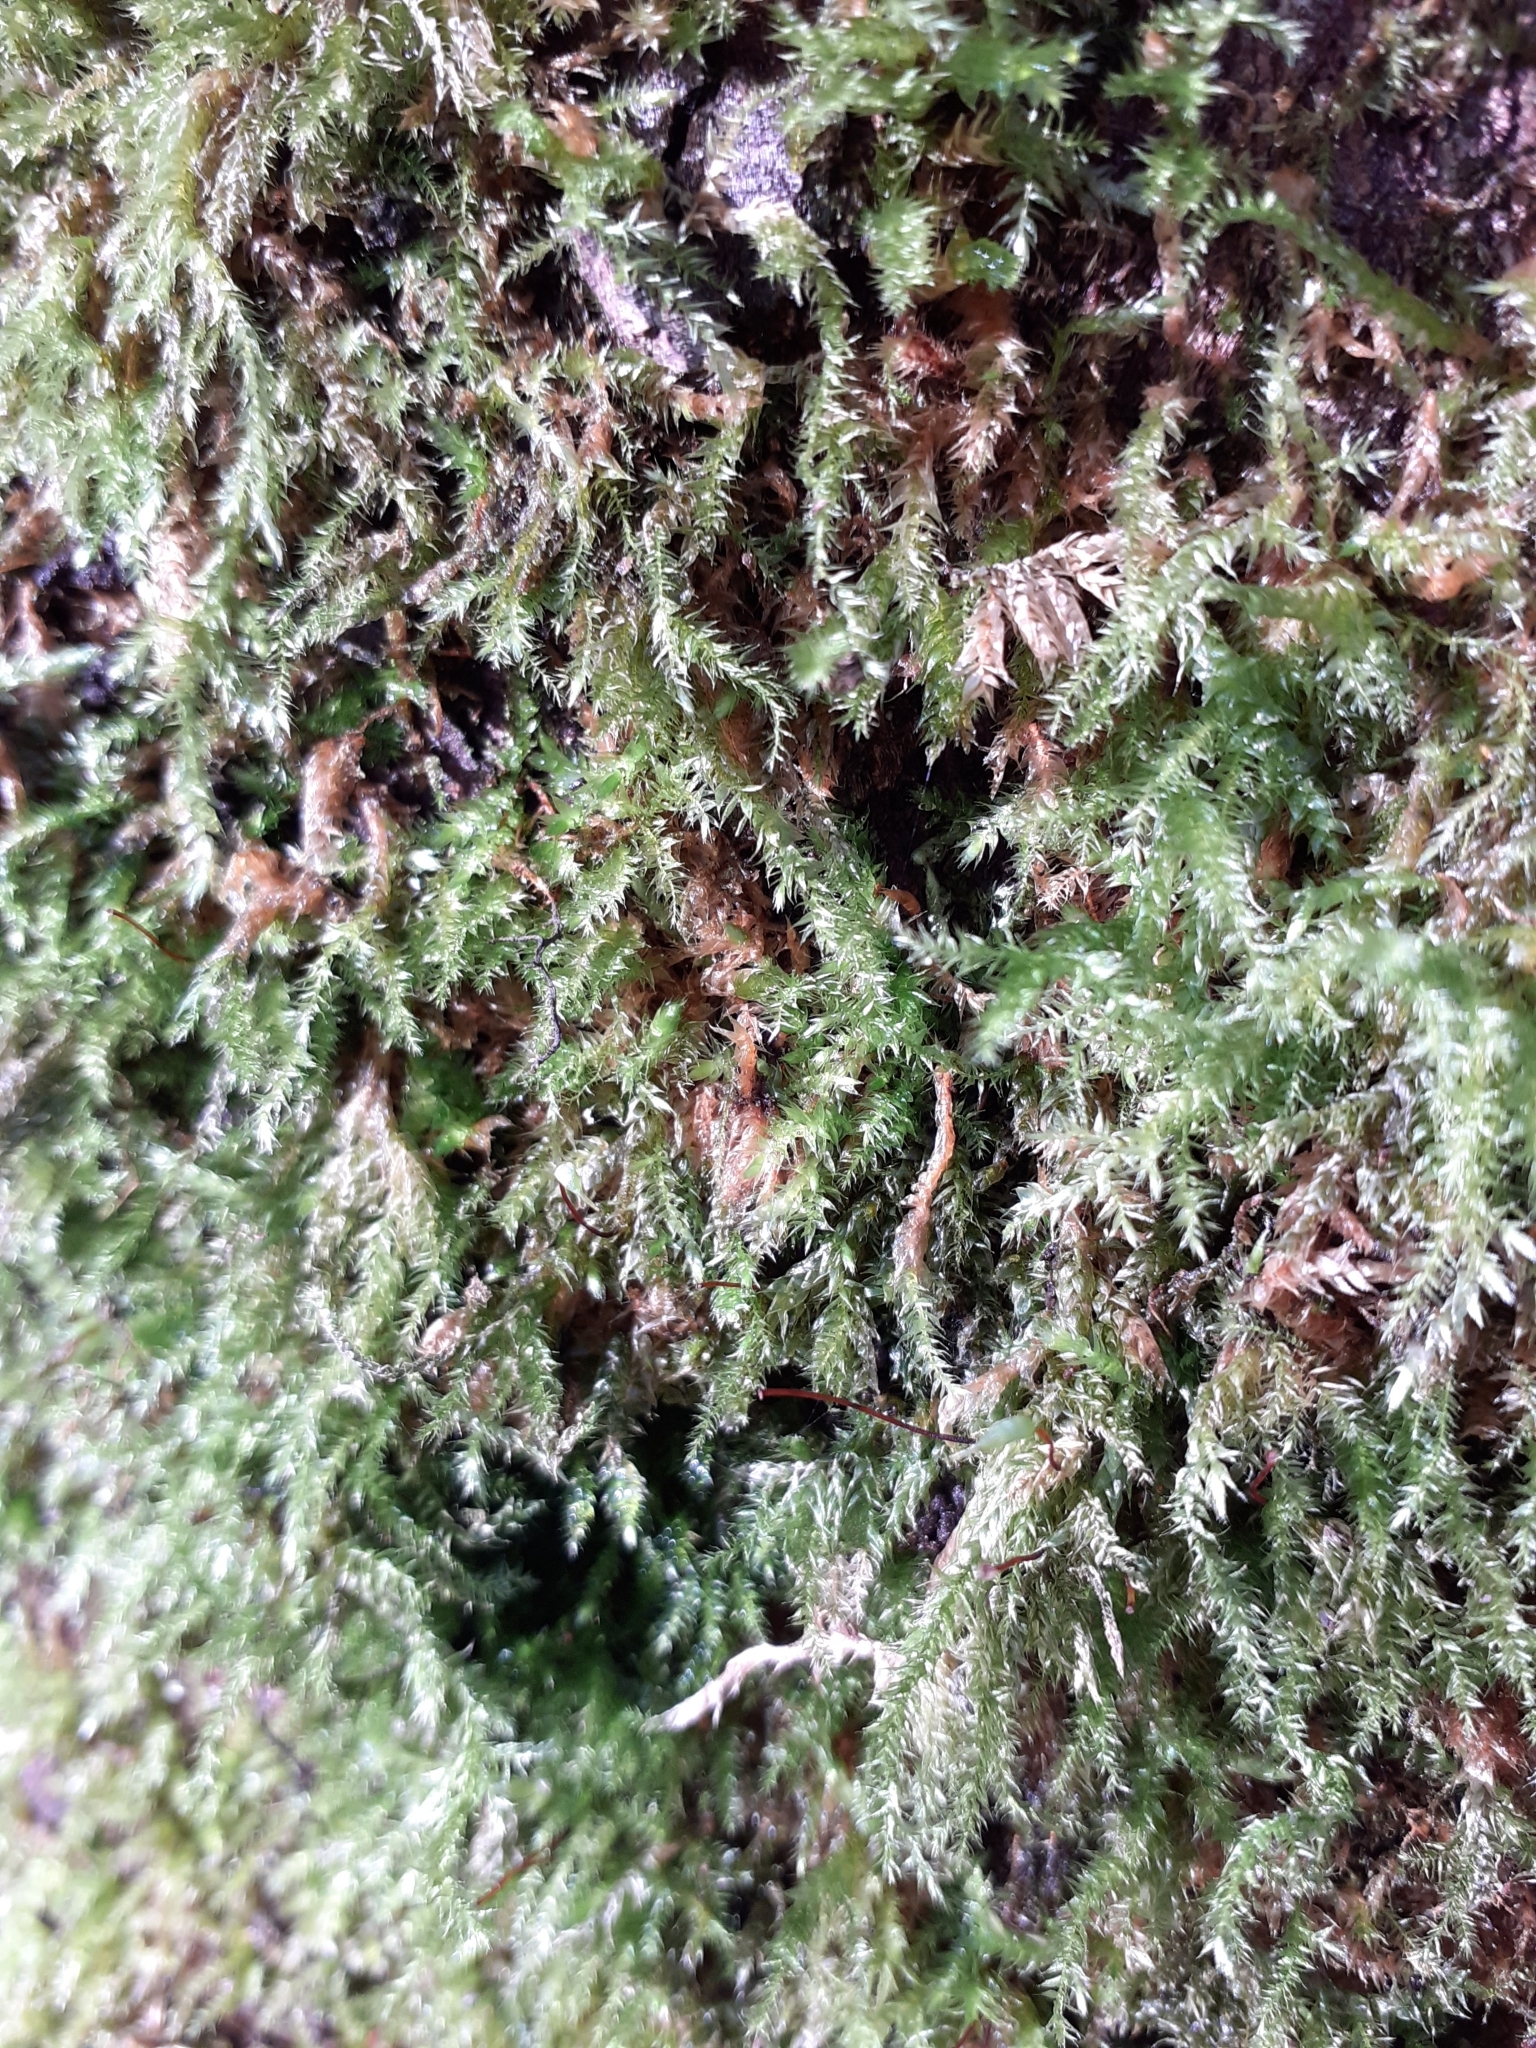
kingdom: Plantae
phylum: Bryophyta
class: Bryopsida
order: Hypnales
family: Brachytheciaceae
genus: Brachythecium
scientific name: Brachythecium rutabulum
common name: Rough-stalked feather-moss
